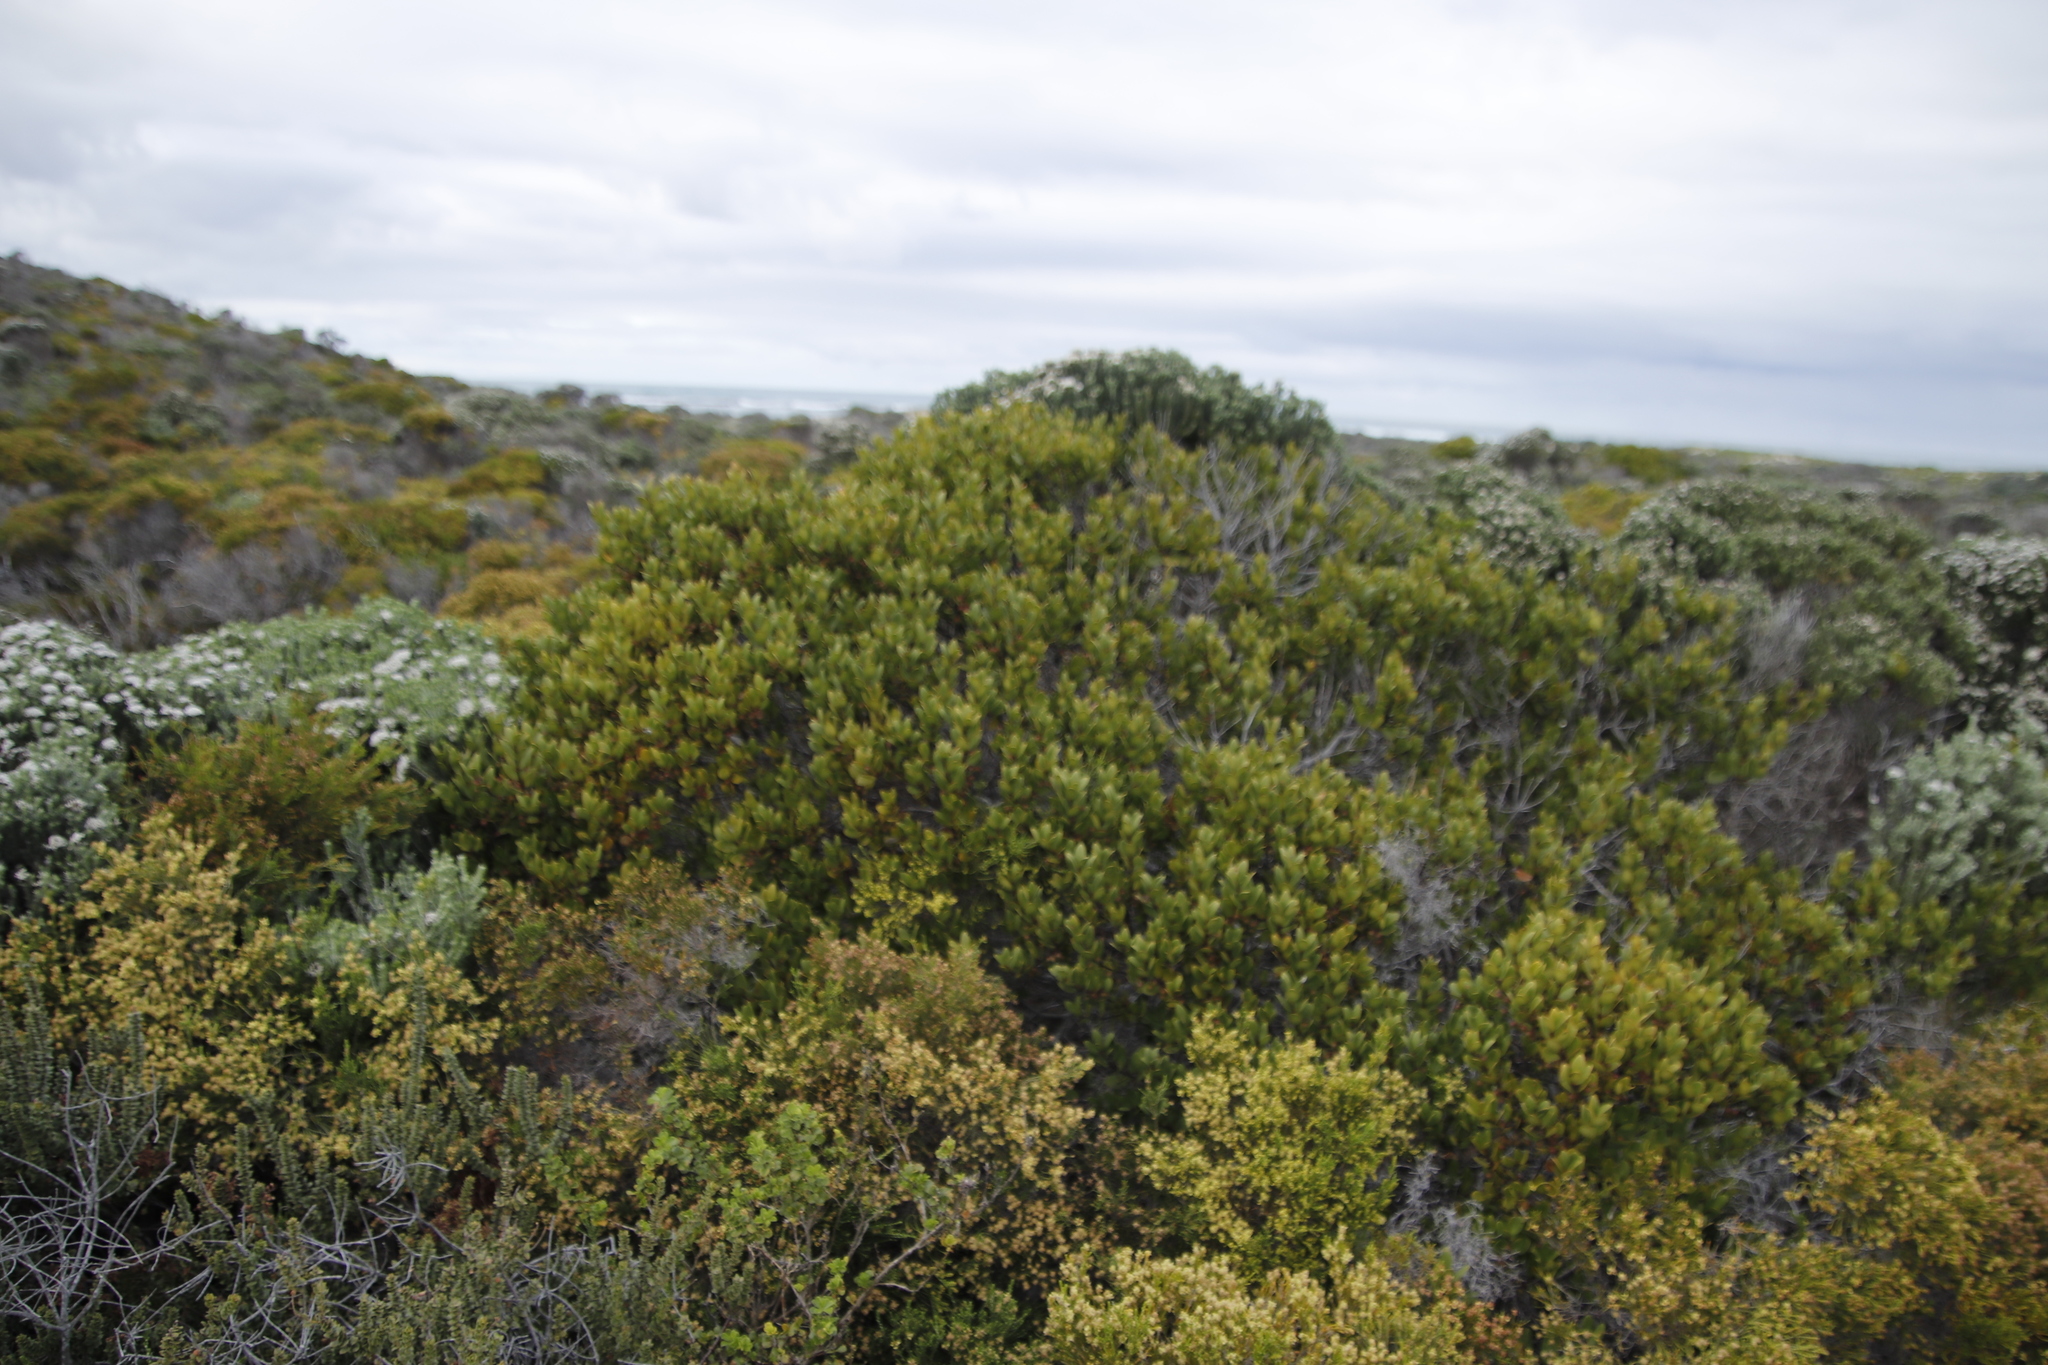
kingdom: Plantae
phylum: Tracheophyta
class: Magnoliopsida
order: Ericales
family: Ebenaceae
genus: Euclea
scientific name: Euclea racemosa
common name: Dune guarri
